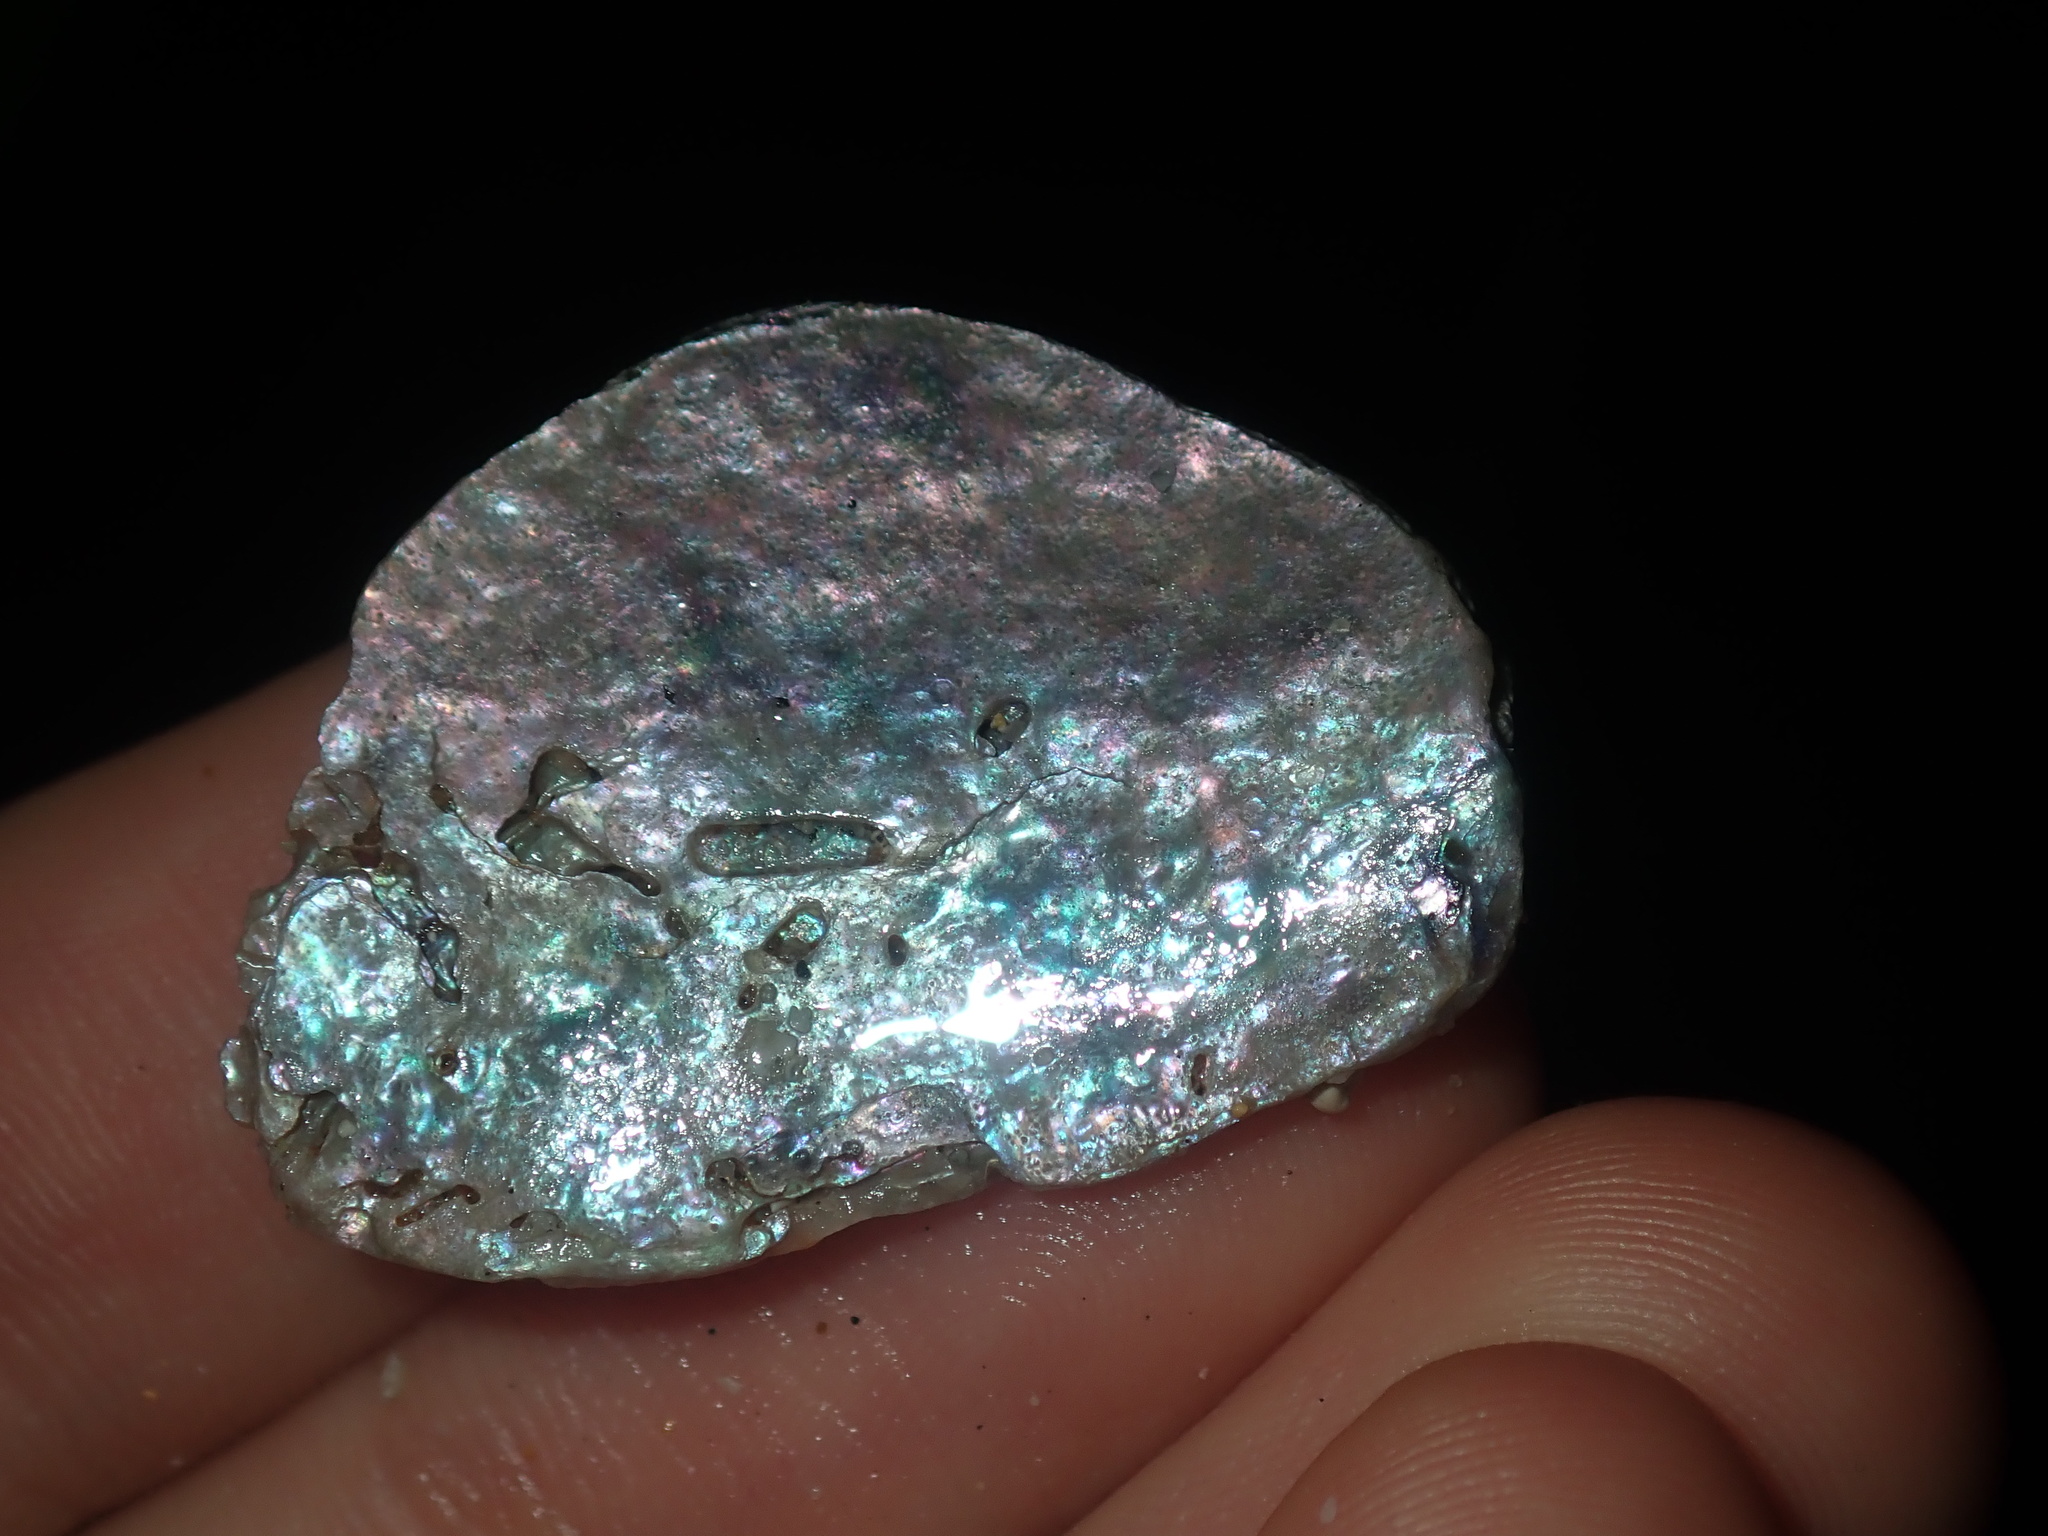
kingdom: Animalia
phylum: Mollusca
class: Gastropoda
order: Lepetellida
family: Haliotidae
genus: Haliotis
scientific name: Haliotis rubra
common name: Blacklip abalone
